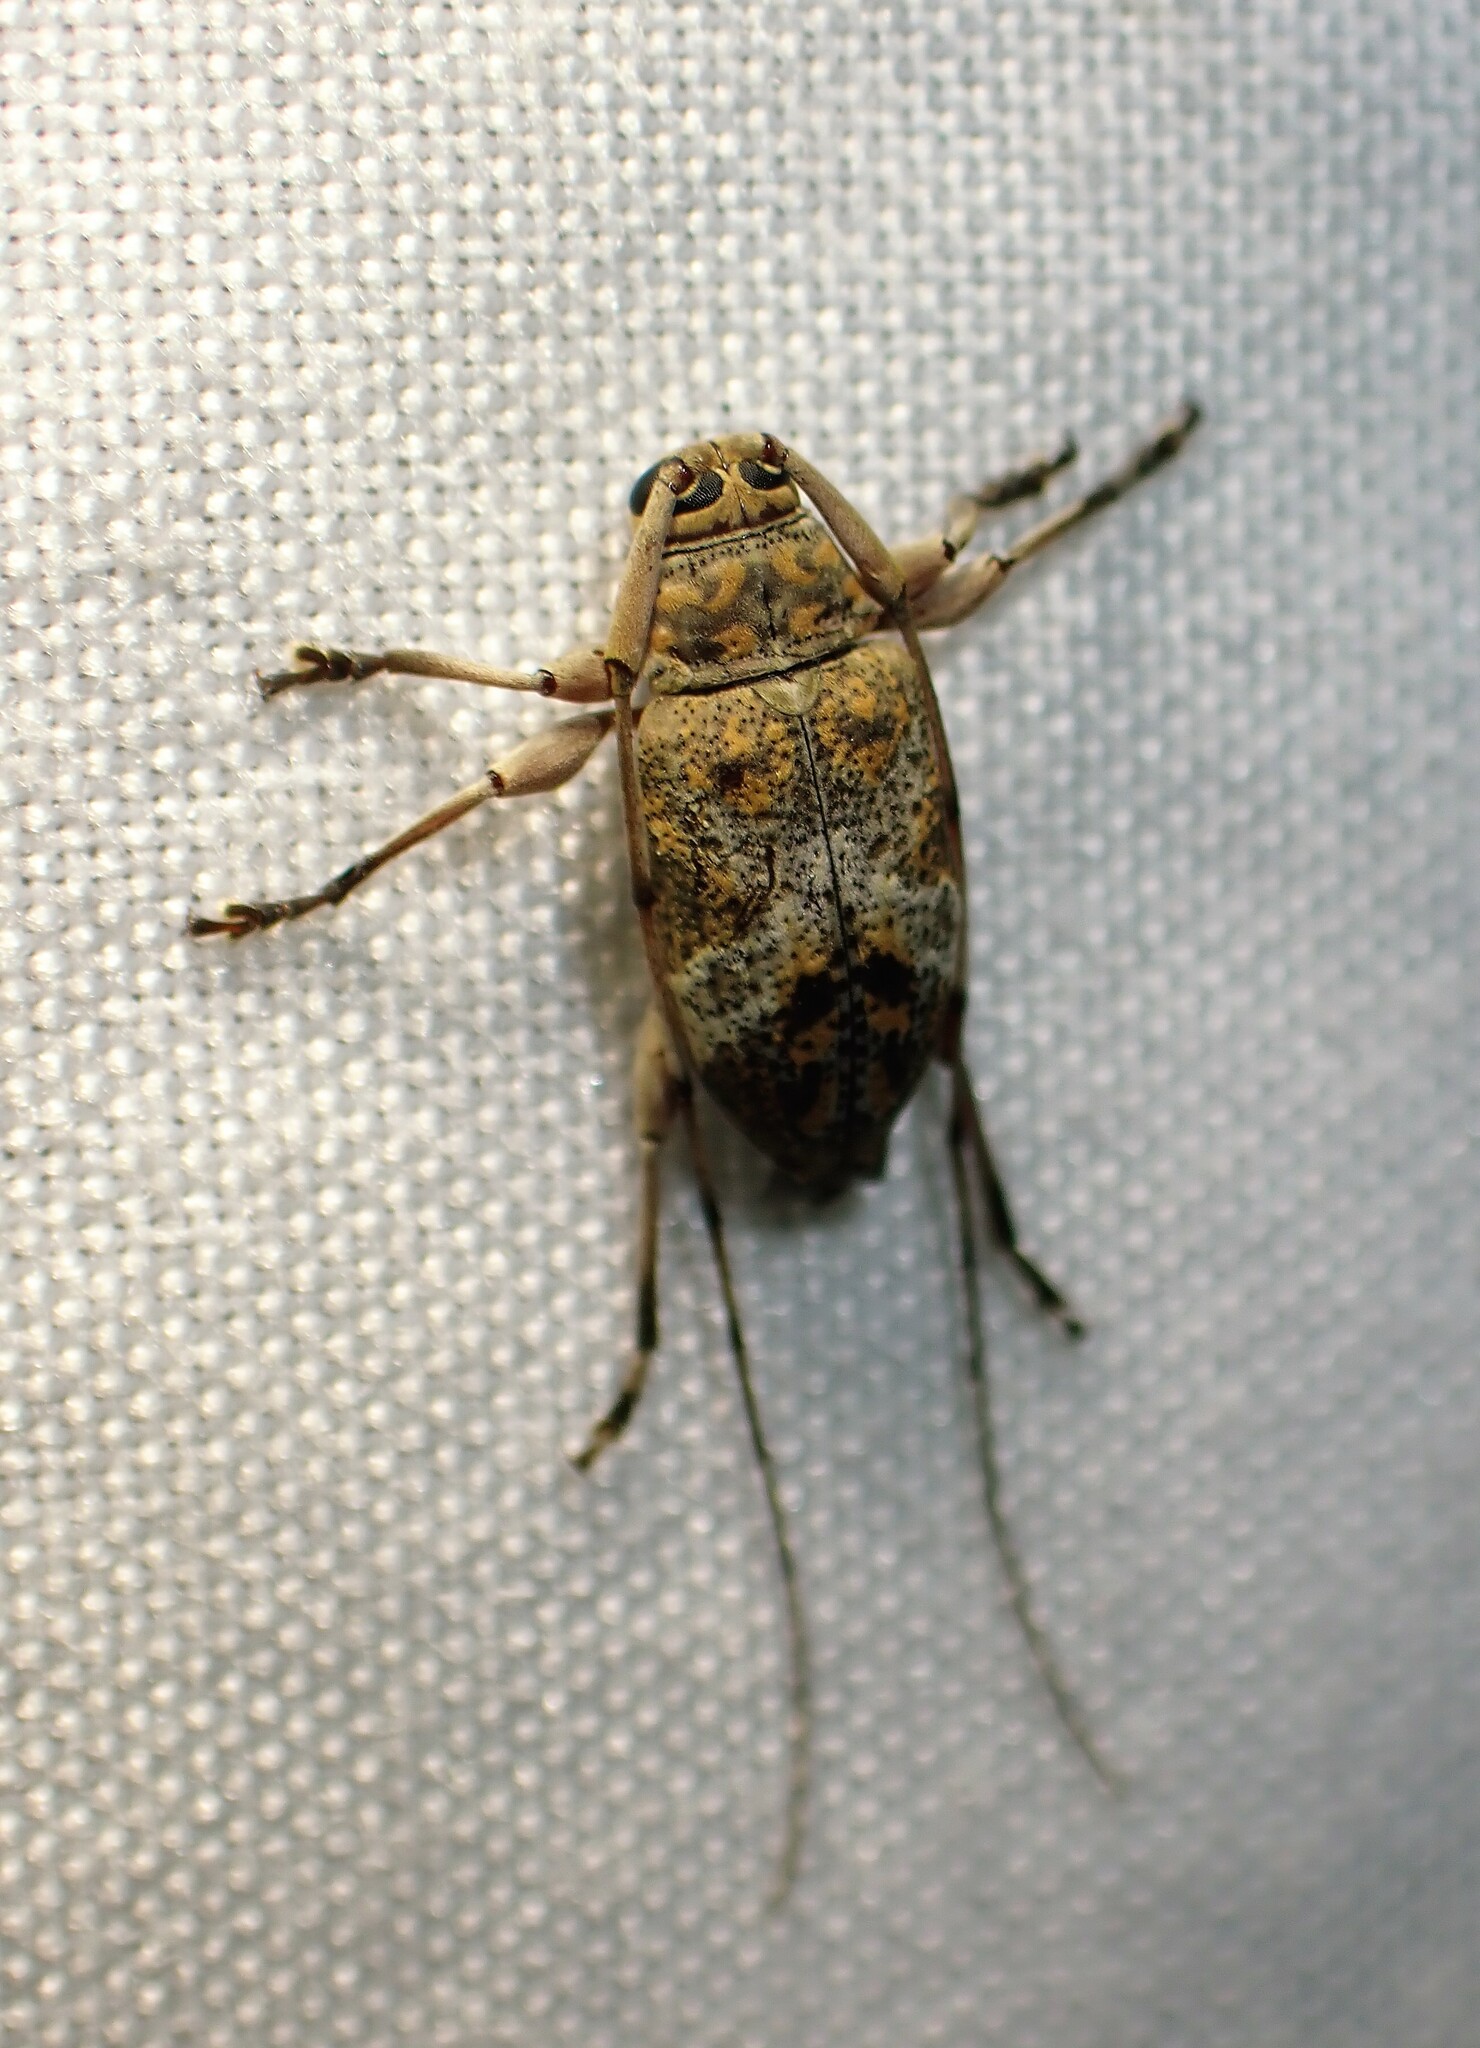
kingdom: Animalia
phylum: Arthropoda
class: Insecta
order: Coleoptera
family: Cerambycidae
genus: Atrypanius
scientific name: Atrypanius implexus
